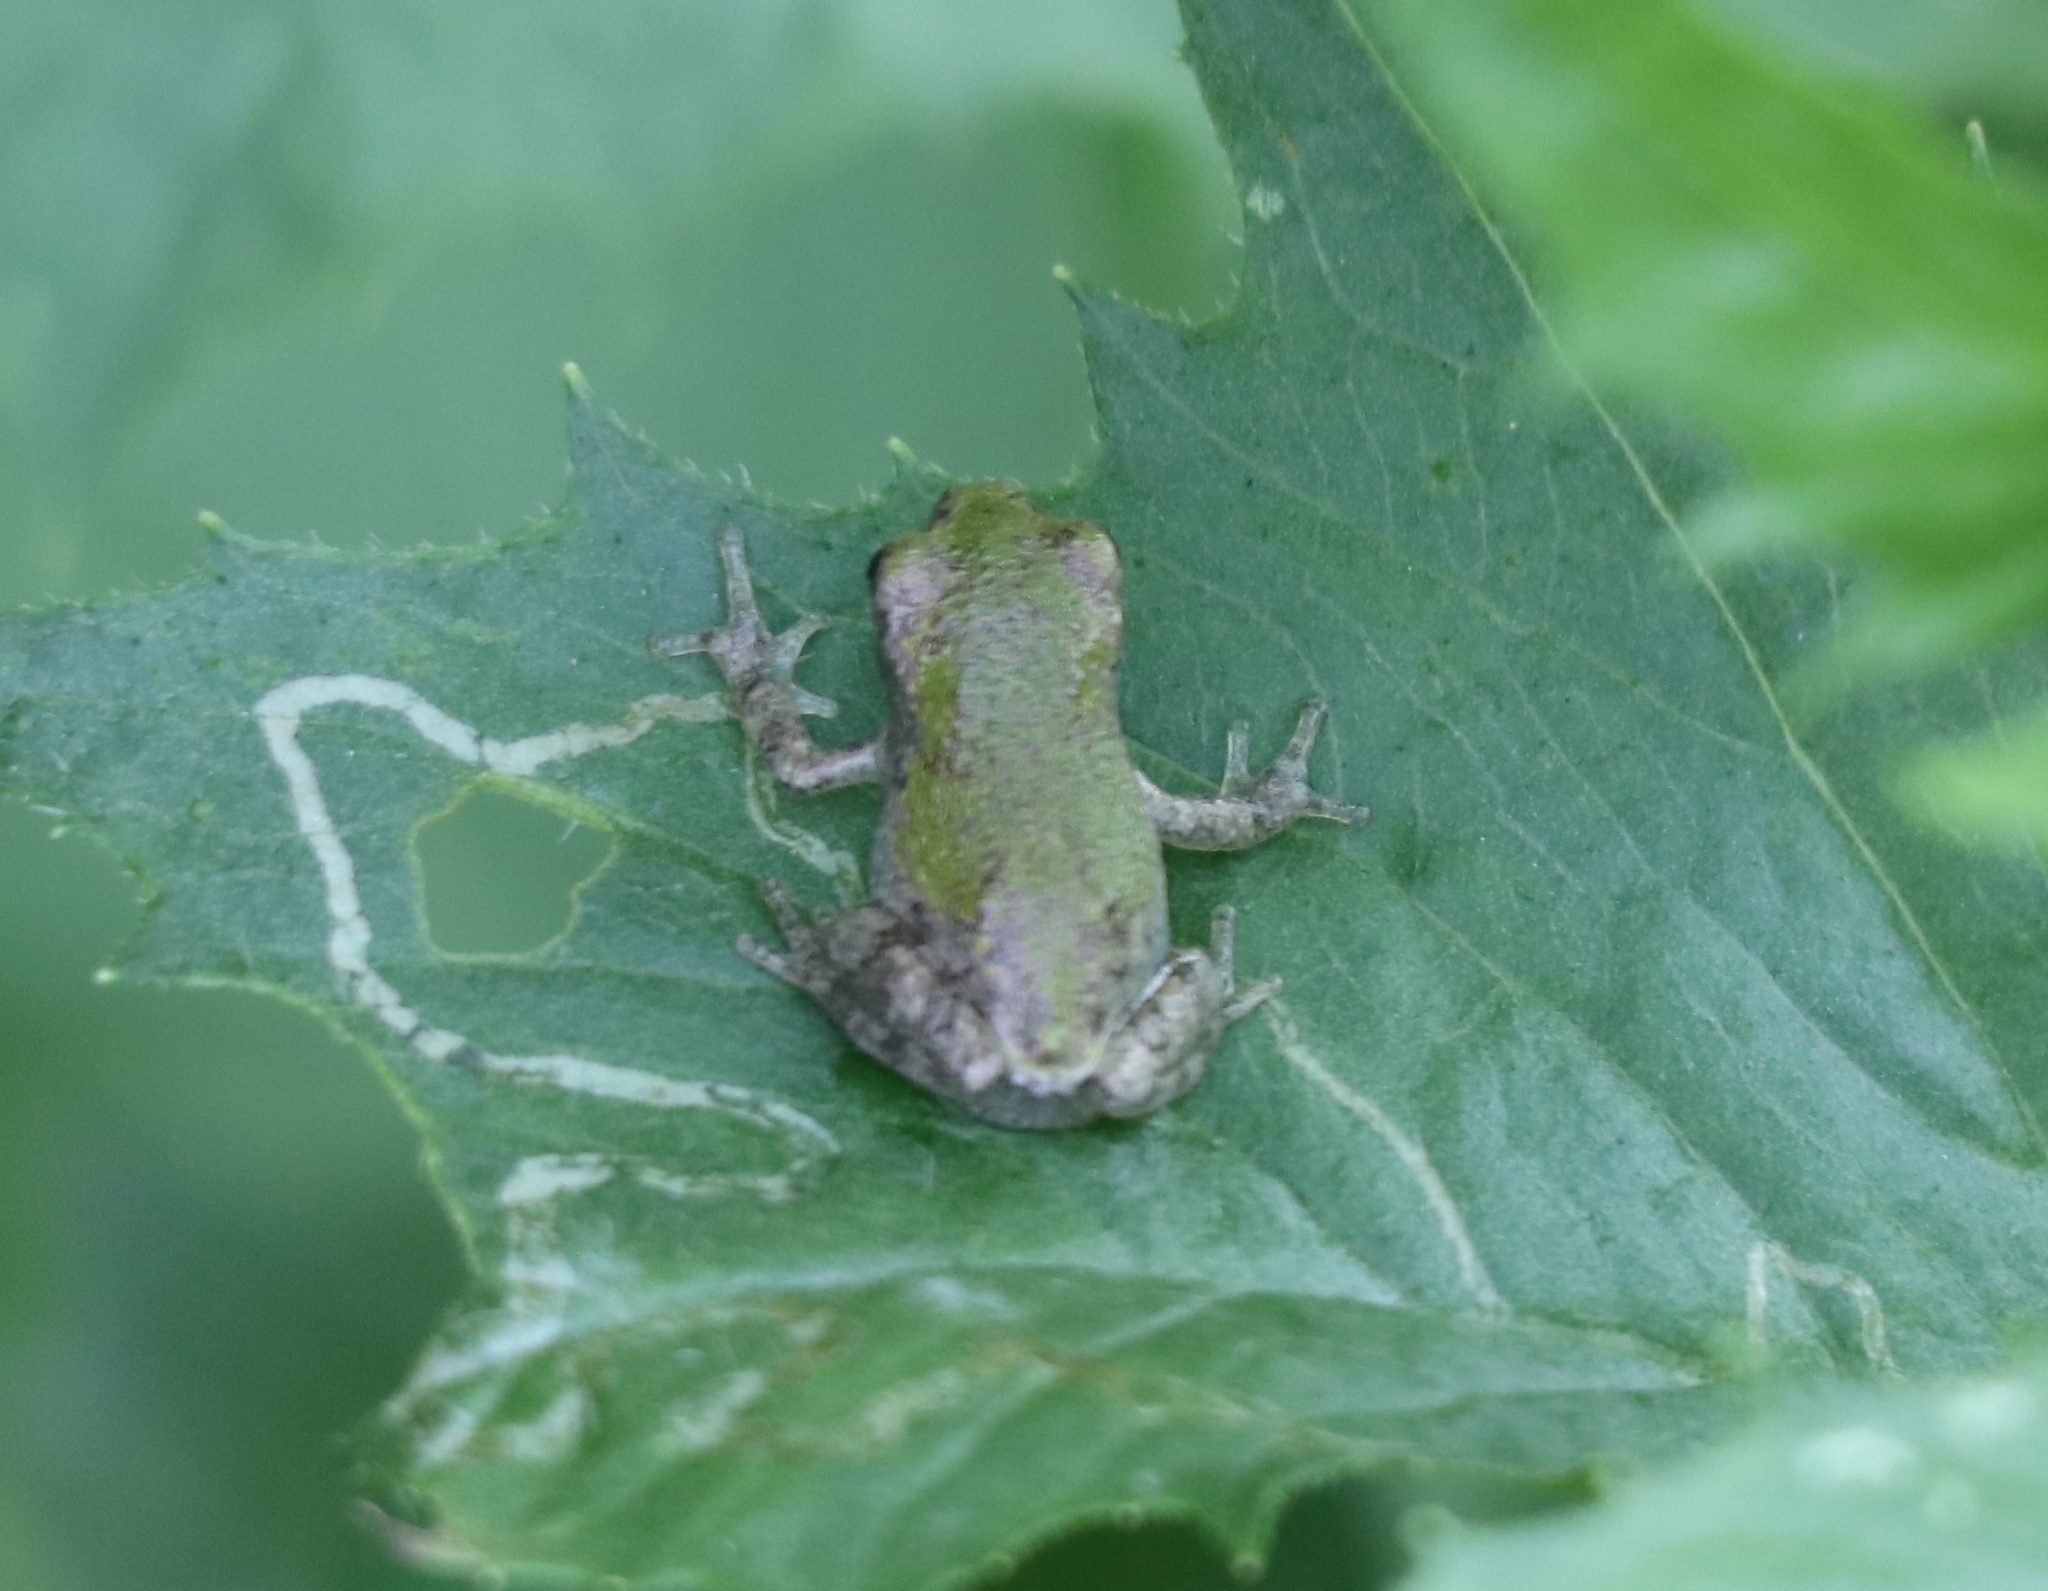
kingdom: Animalia
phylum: Chordata
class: Amphibia
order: Anura
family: Hylidae
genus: Hyla
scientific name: Hyla
